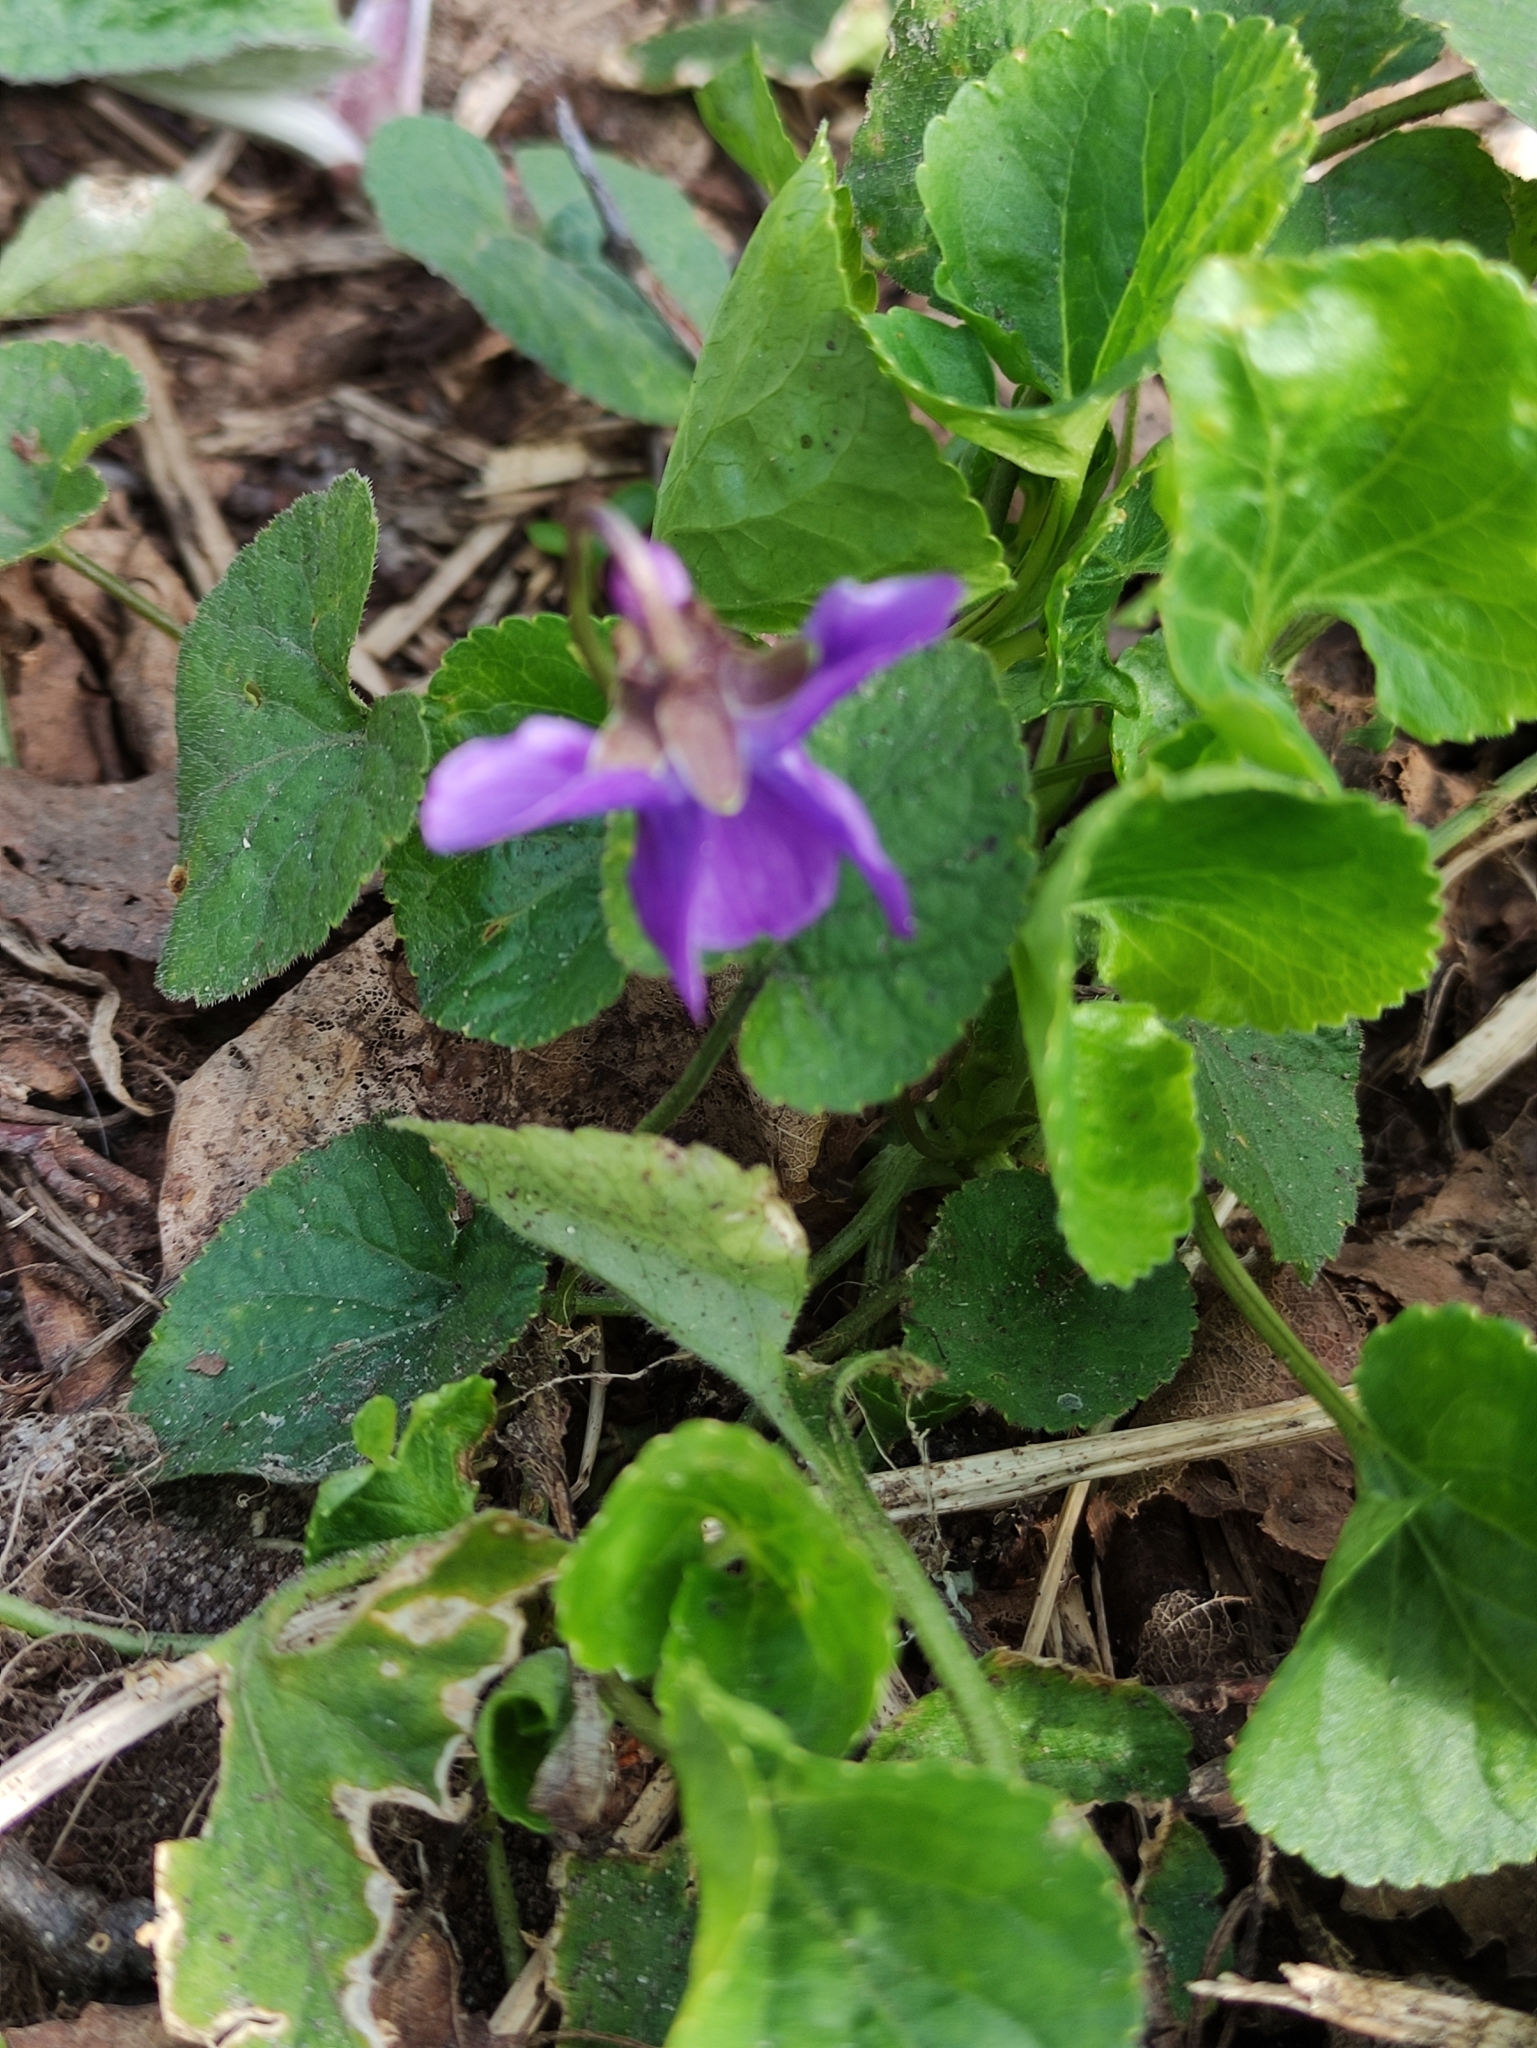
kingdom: Plantae
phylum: Tracheophyta
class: Magnoliopsida
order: Malpighiales
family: Violaceae
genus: Viola
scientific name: Viola odorata
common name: Sweet violet
